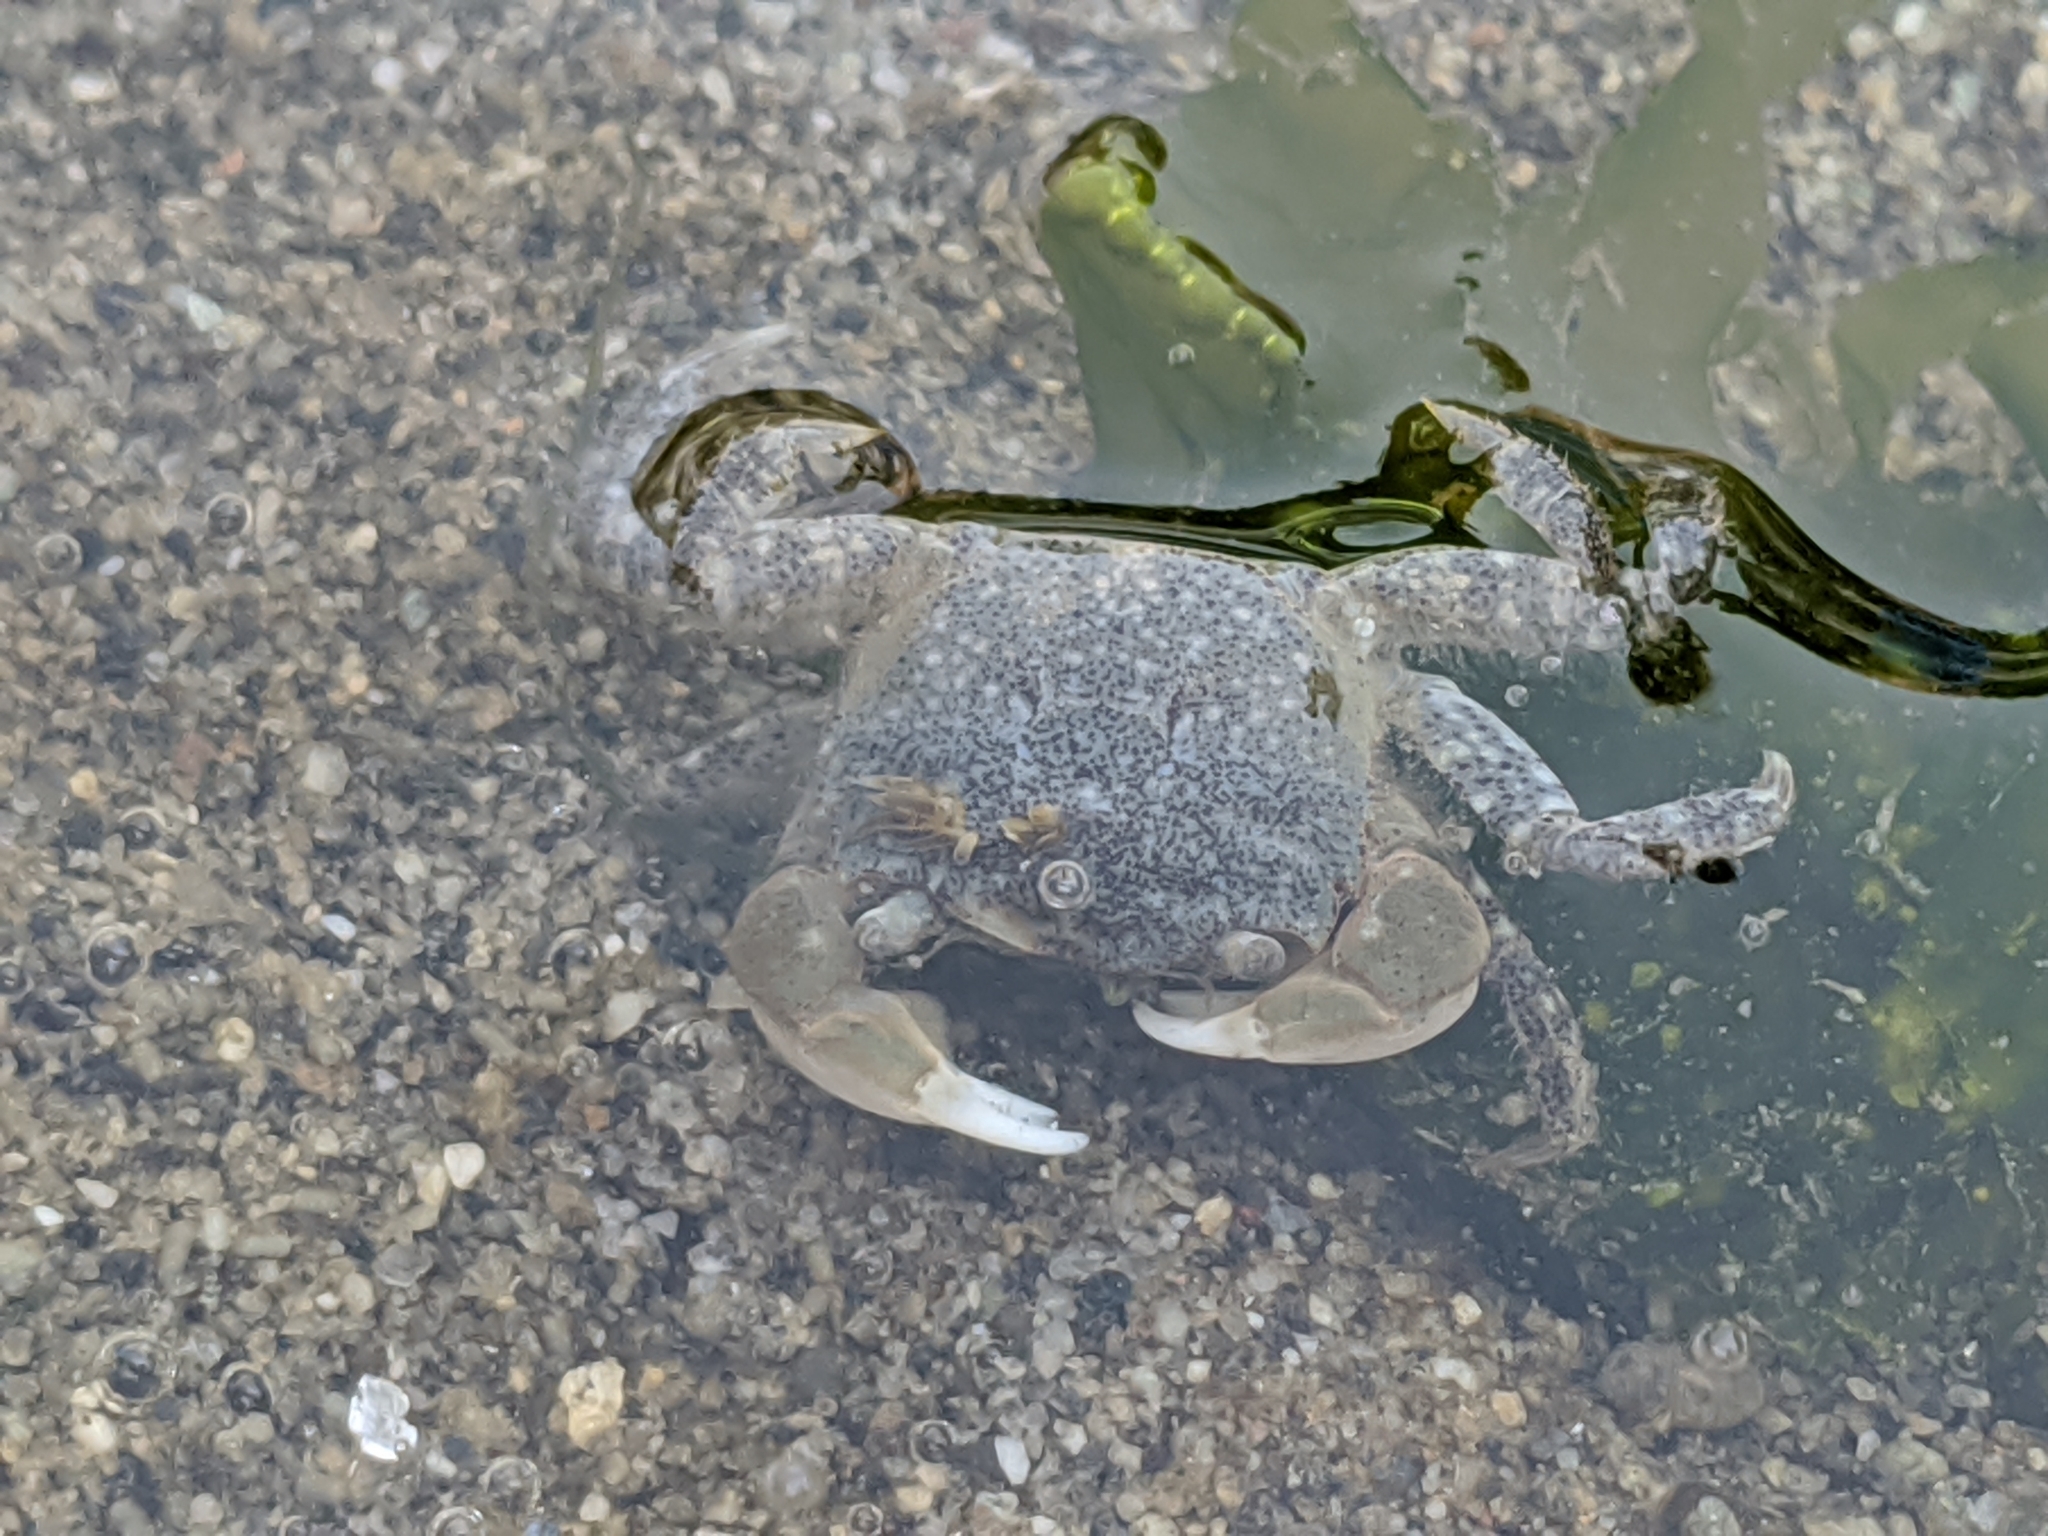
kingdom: Animalia
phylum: Arthropoda
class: Malacostraca
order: Decapoda
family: Varunidae
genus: Hemigrapsus
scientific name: Hemigrapsus oregonensis
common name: Yellow shore crab
